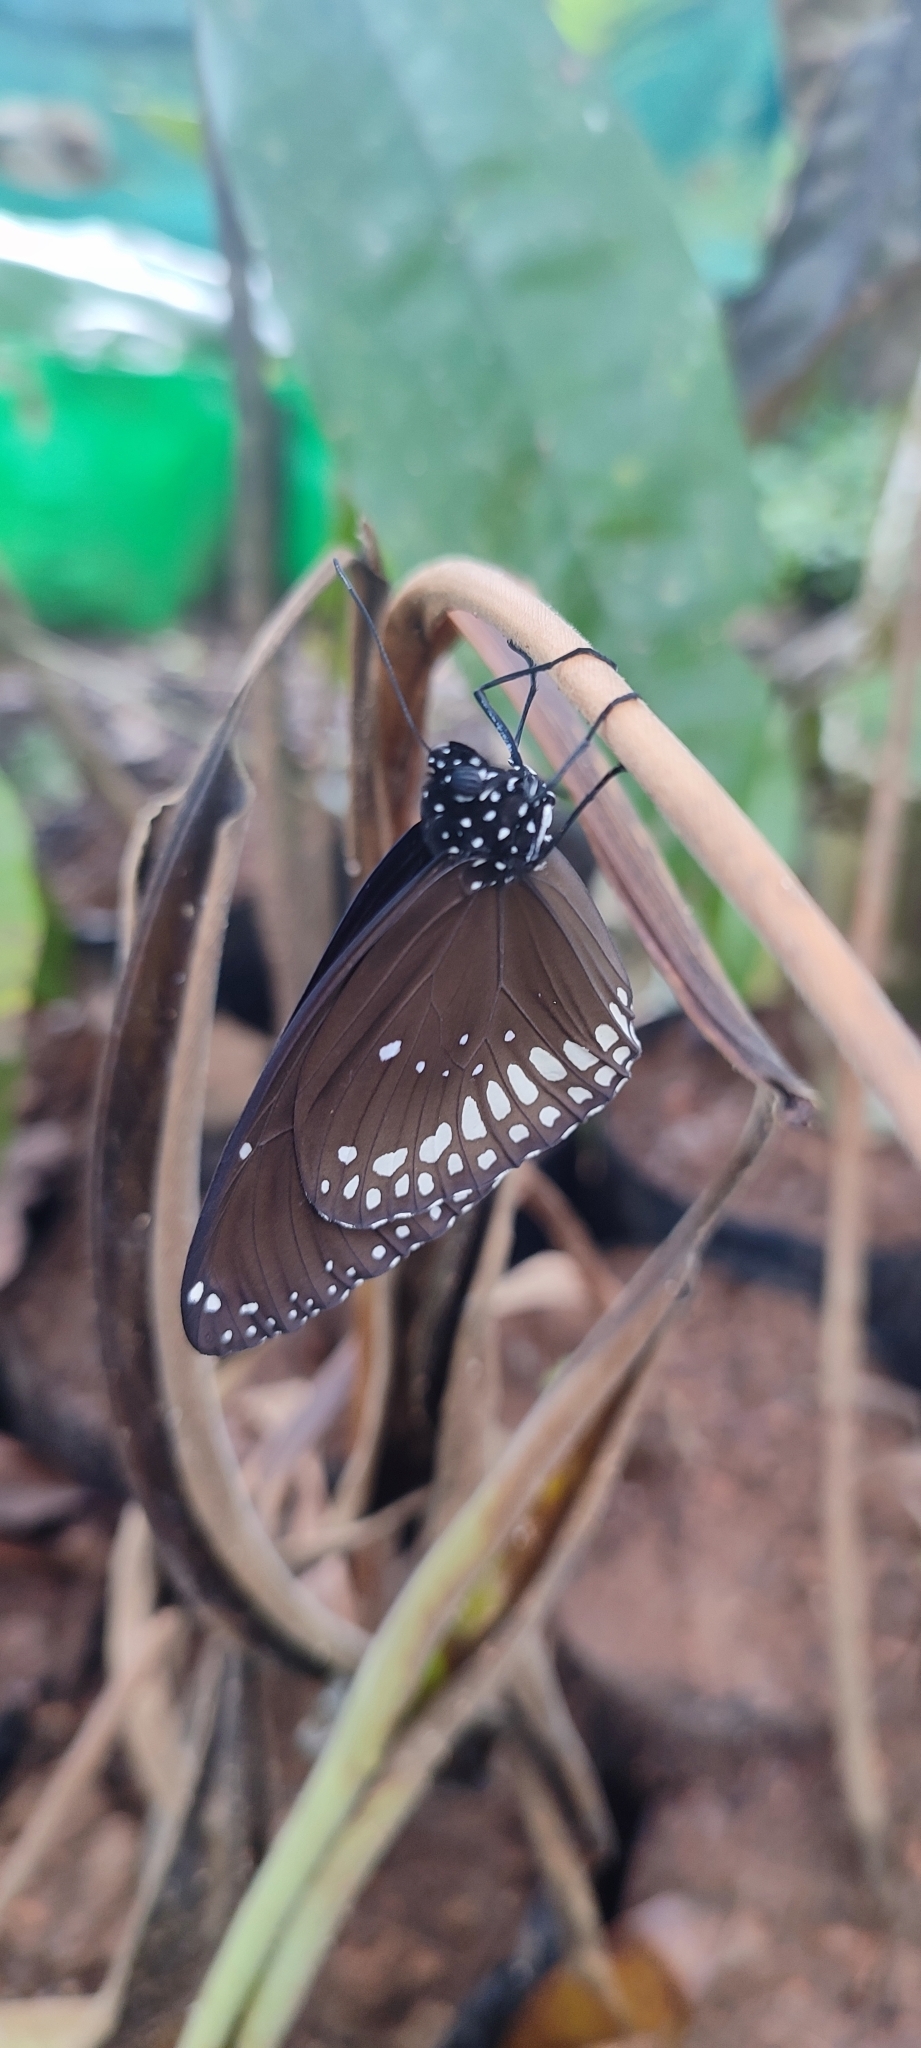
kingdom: Animalia
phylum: Arthropoda
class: Insecta
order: Lepidoptera
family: Nymphalidae
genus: Euploea
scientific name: Euploea core
